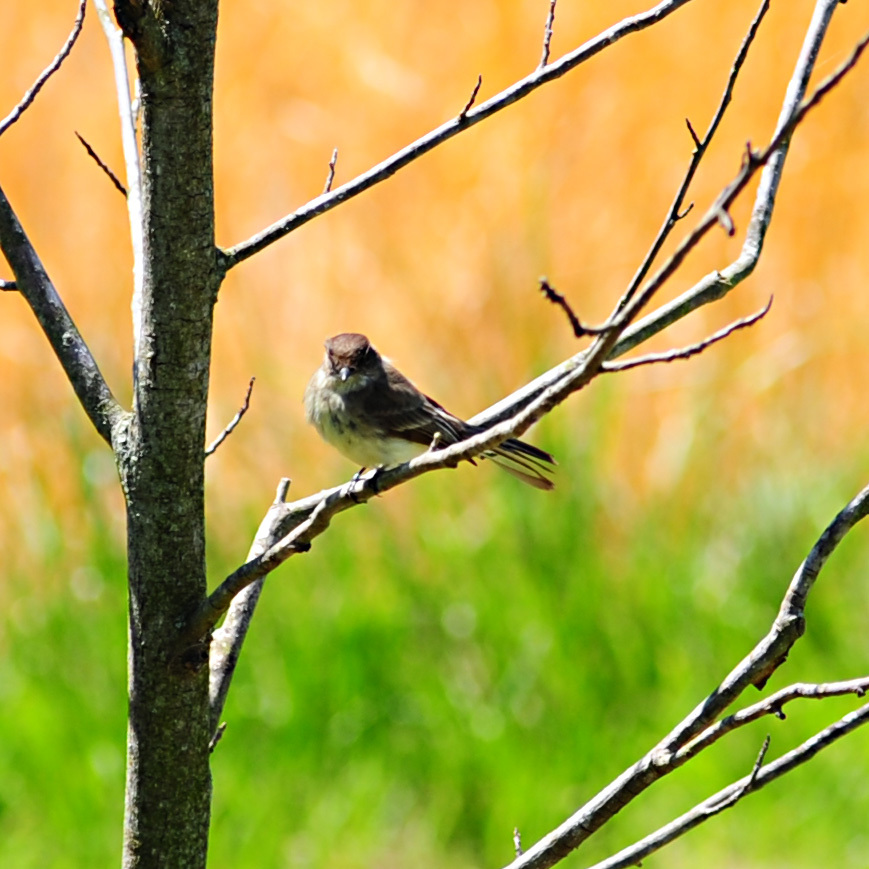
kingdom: Animalia
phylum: Chordata
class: Aves
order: Passeriformes
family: Tyrannidae
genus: Sayornis
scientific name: Sayornis phoebe
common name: Eastern phoebe
